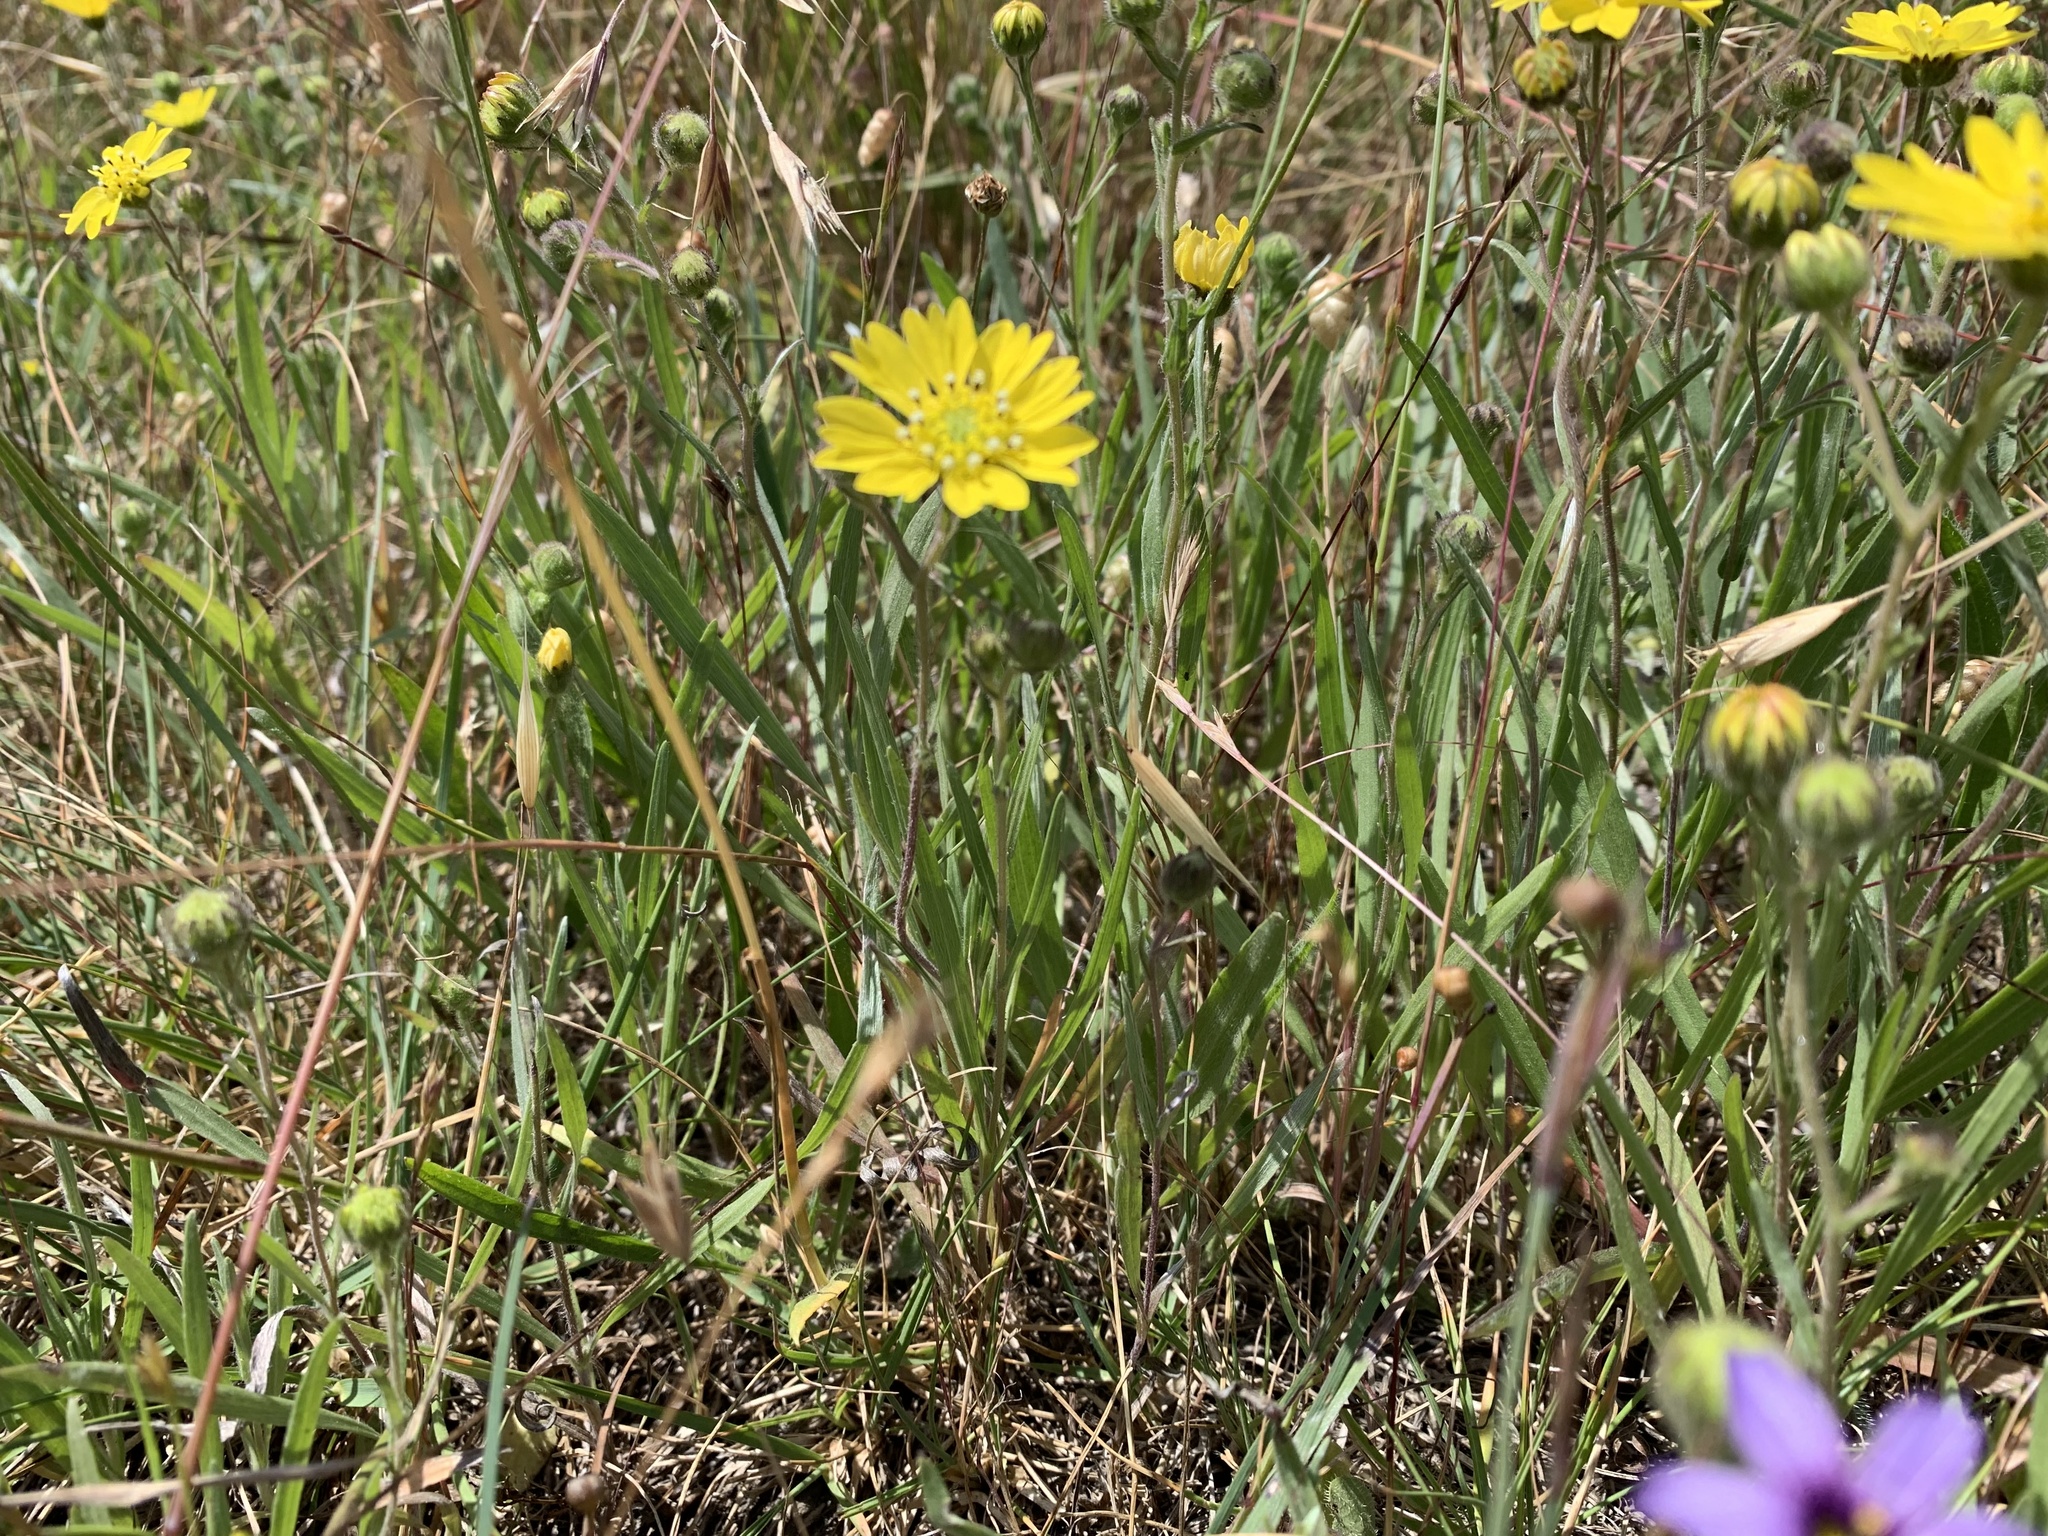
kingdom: Plantae
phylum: Tracheophyta
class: Magnoliopsida
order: Asterales
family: Asteraceae
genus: Hemizonia
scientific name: Hemizonia congesta
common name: Hayfield tarweed
